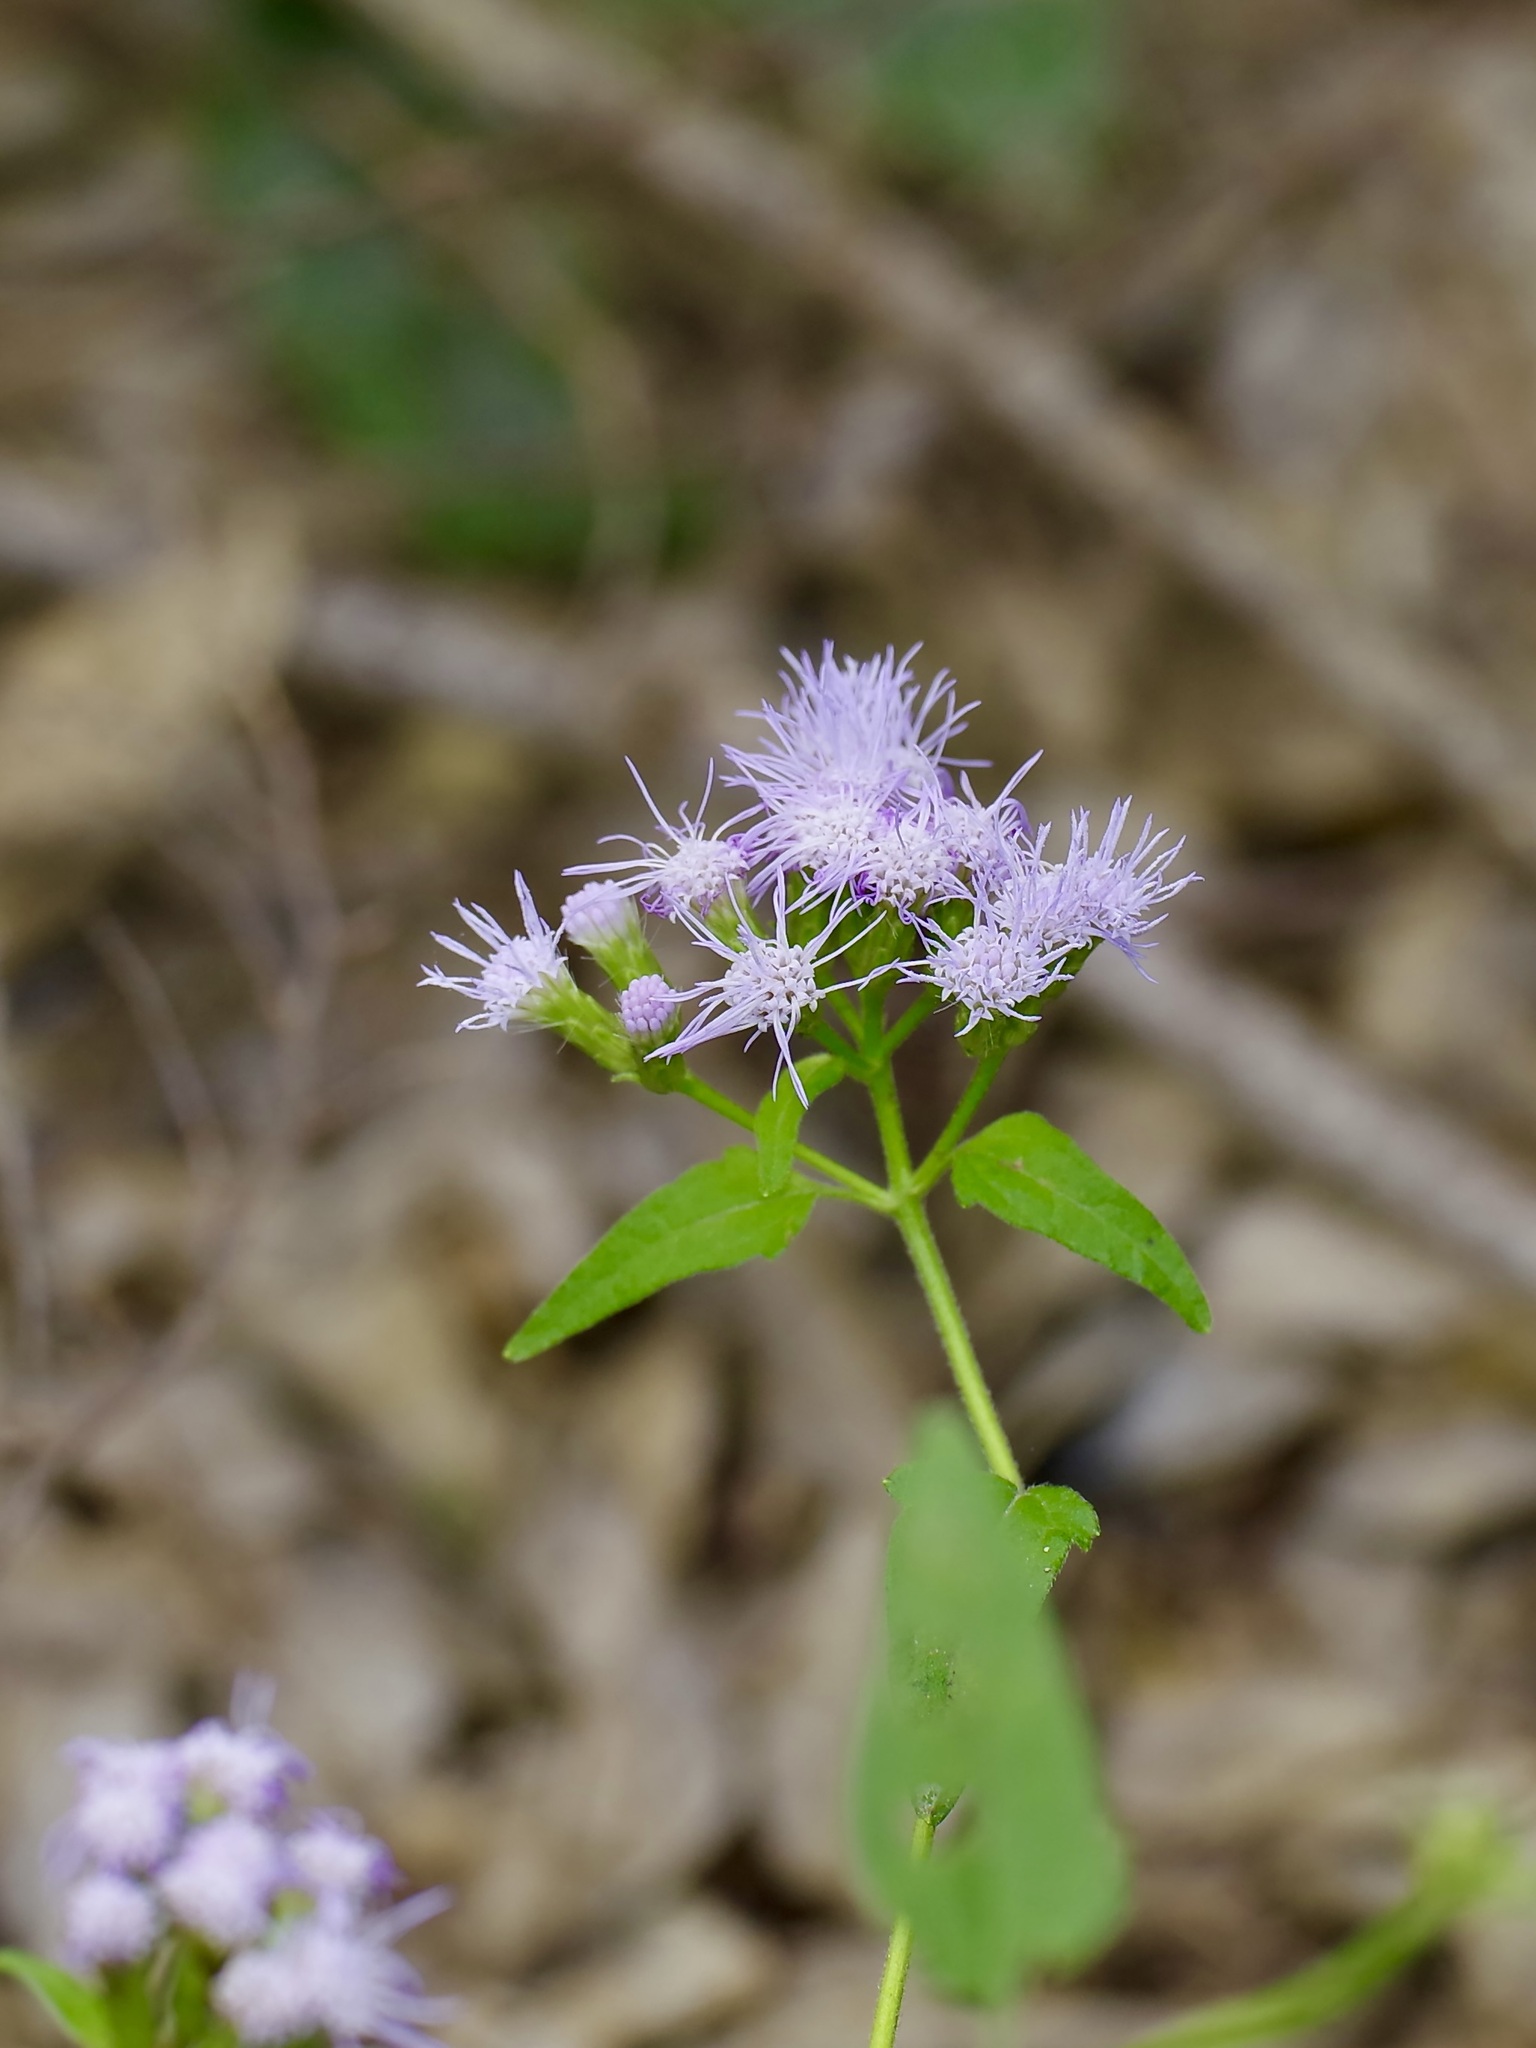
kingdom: Plantae
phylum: Tracheophyta
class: Magnoliopsida
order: Asterales
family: Asteraceae
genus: Chromolaena
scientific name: Chromolaena odorata
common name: Siamweed
